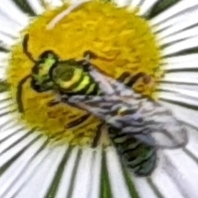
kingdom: Animalia
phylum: Arthropoda
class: Insecta
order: Hymenoptera
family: Halictidae
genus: Augochlora
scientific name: Augochlora pura
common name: Pure green sweat bee
